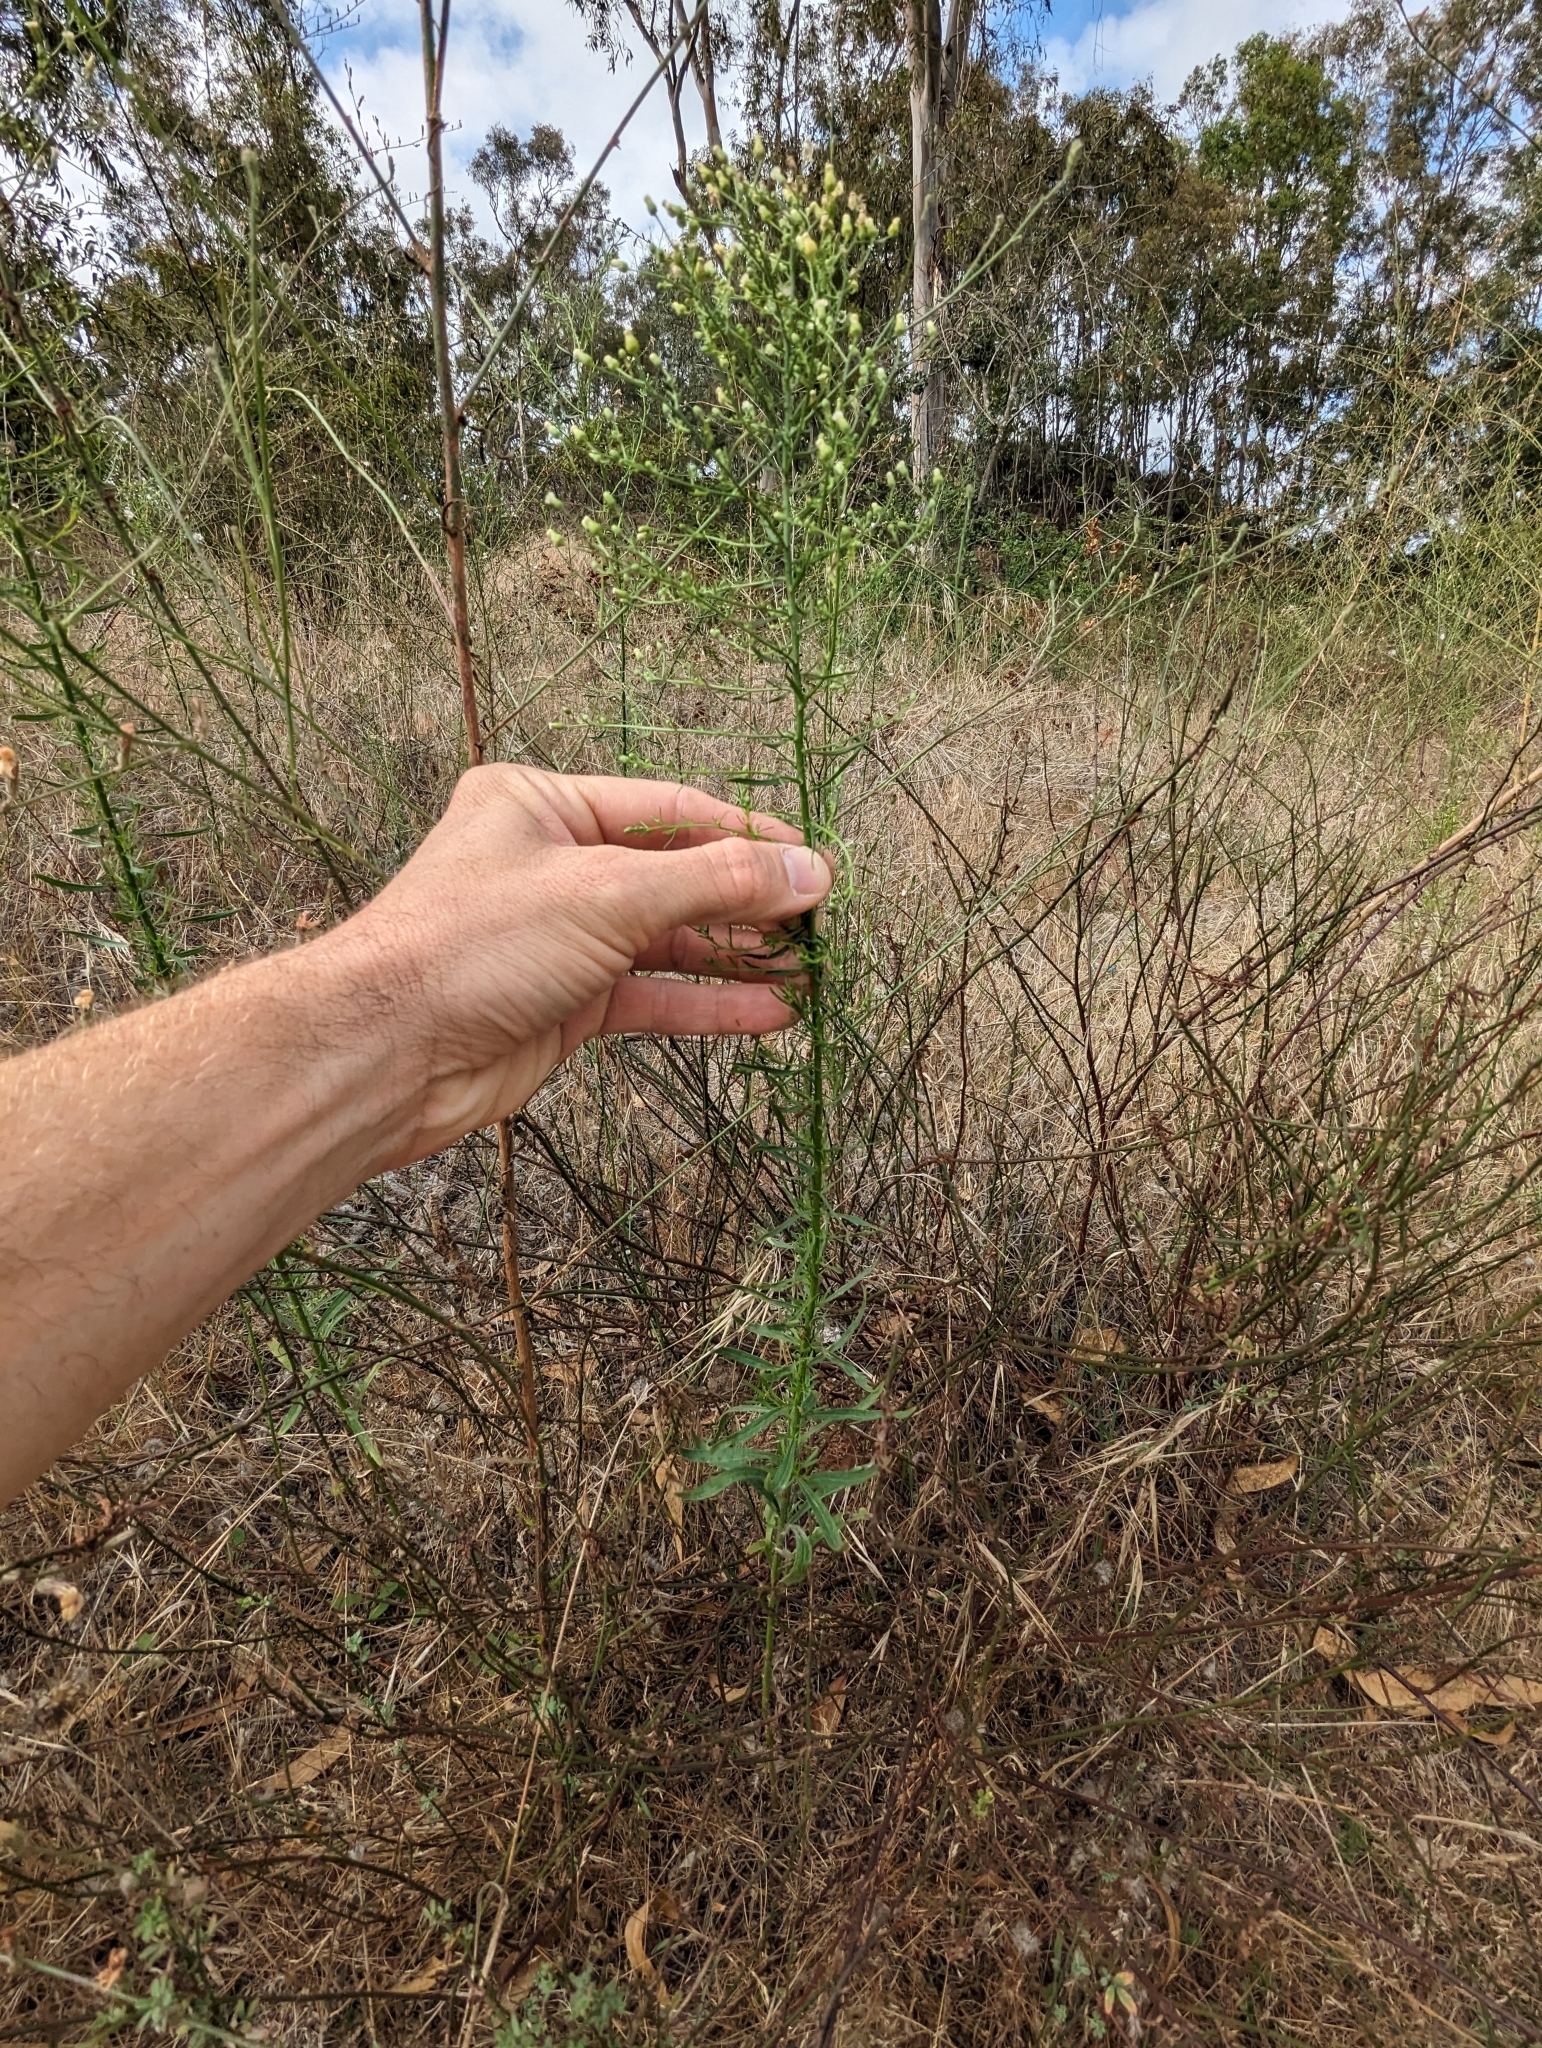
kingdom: Plantae
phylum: Tracheophyta
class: Magnoliopsida
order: Asterales
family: Asteraceae
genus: Erigeron
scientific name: Erigeron canadensis
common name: Canadian fleabane
